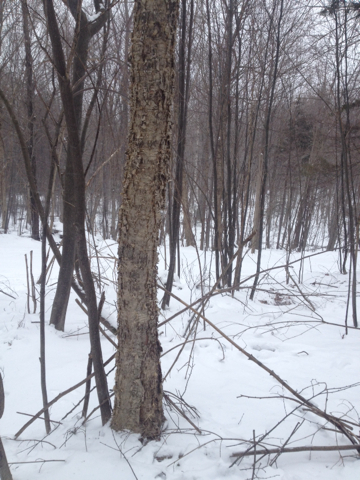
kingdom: Plantae
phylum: Tracheophyta
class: Magnoliopsida
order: Fagales
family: Betulaceae
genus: Betula
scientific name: Betula alleghaniensis
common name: Yellow birch
